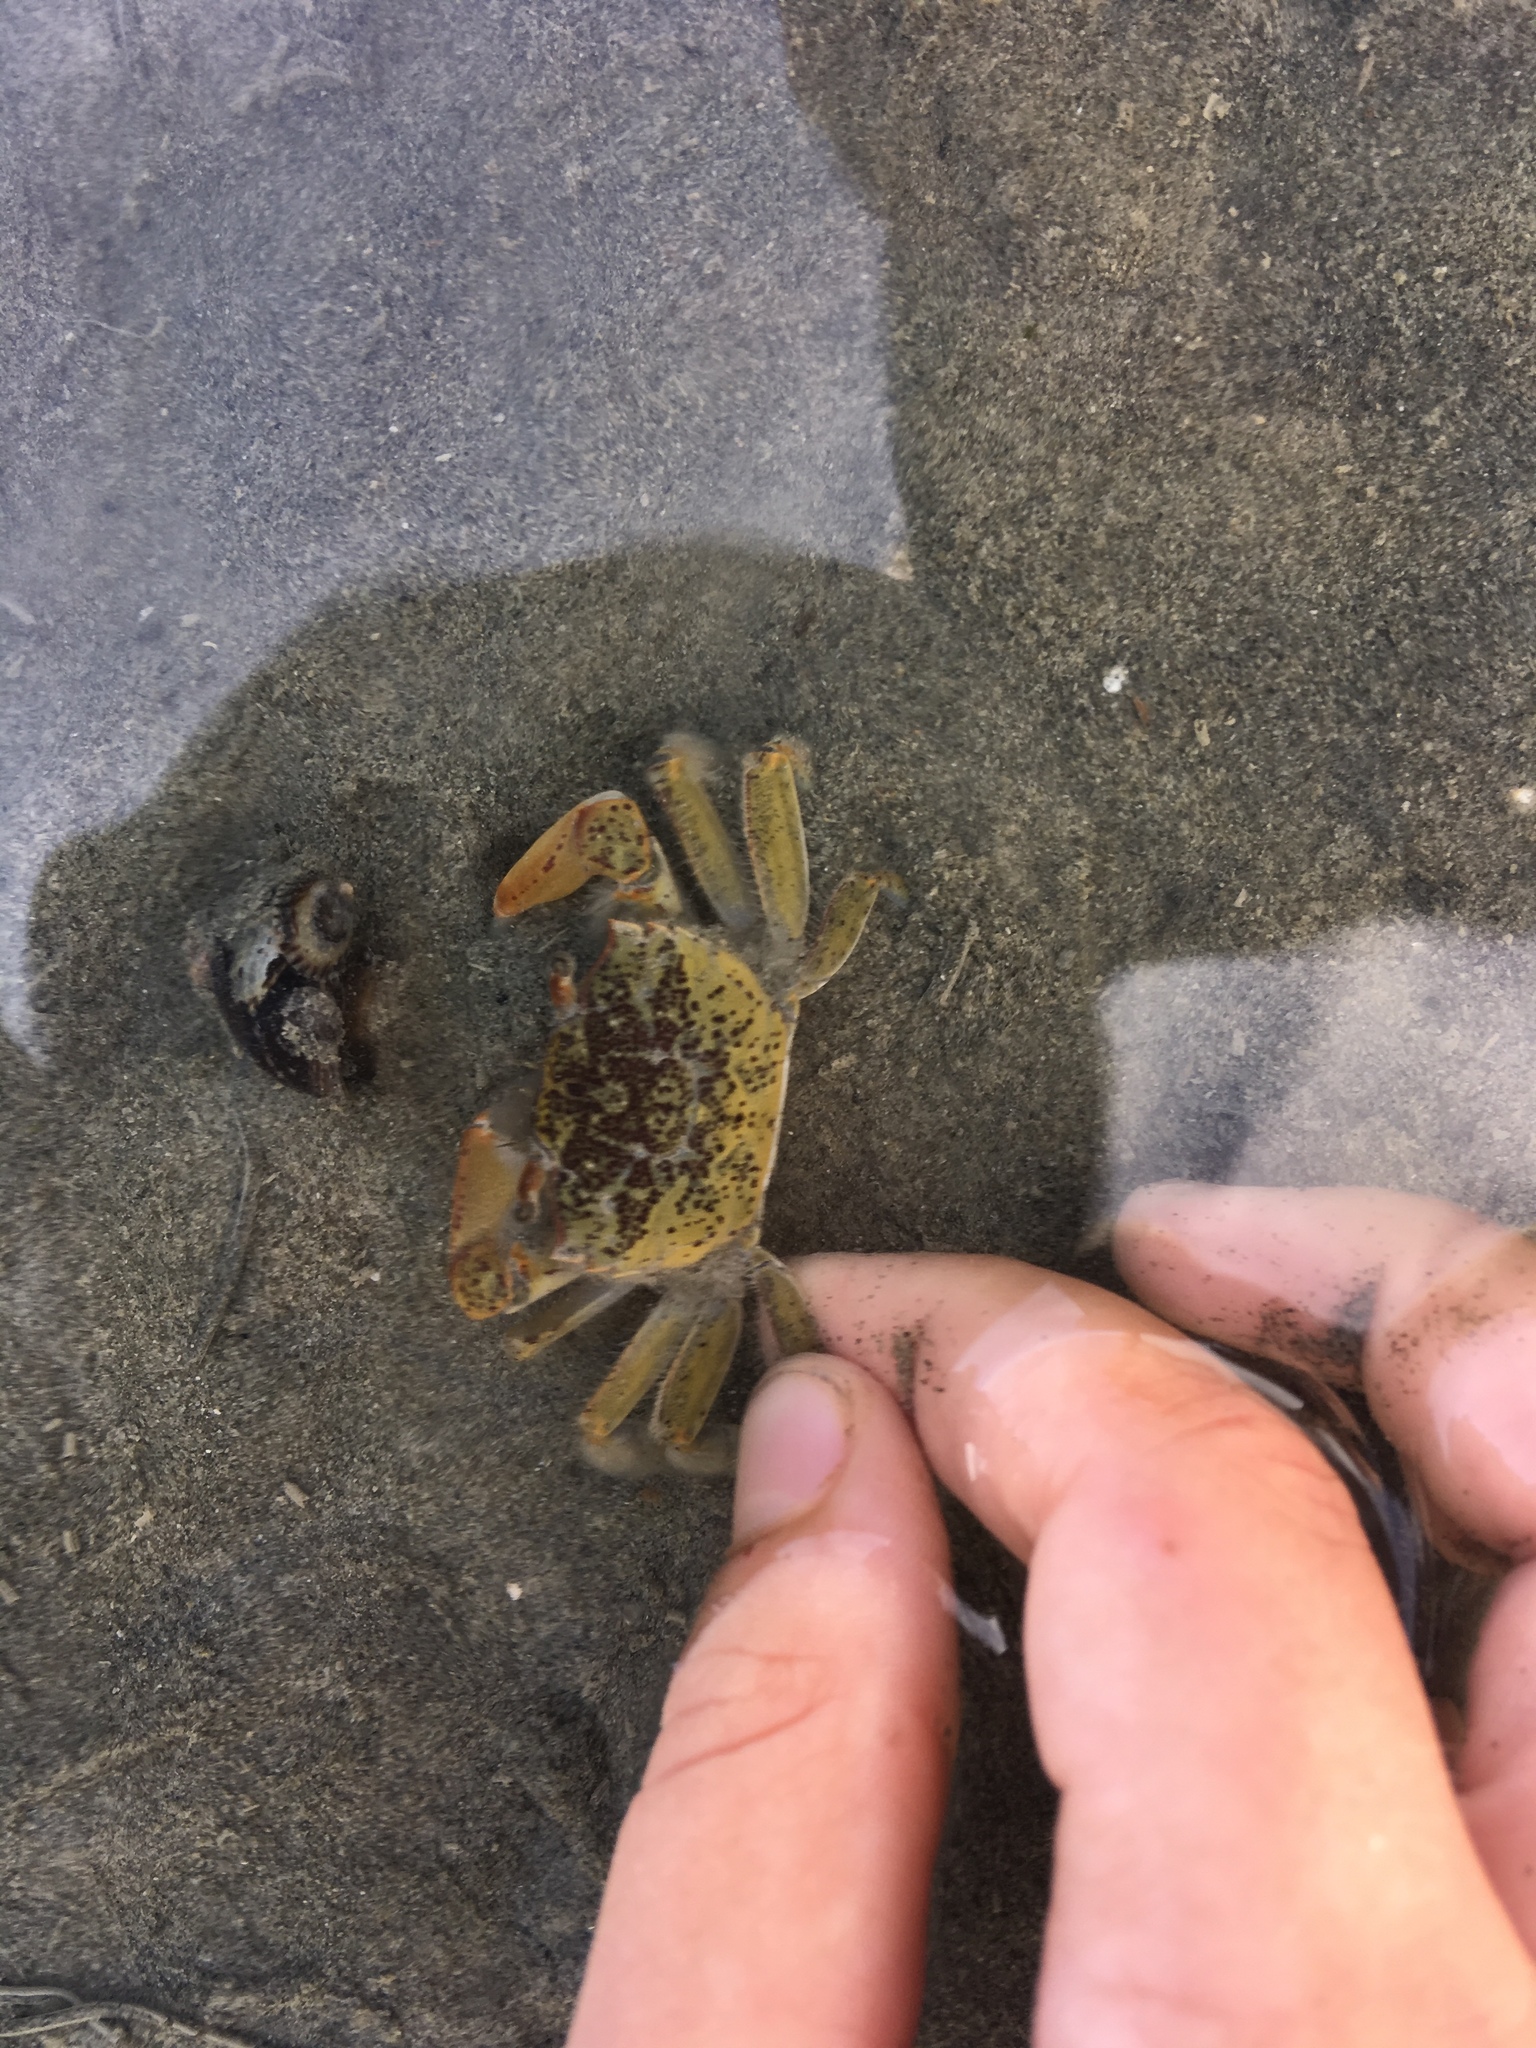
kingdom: Animalia
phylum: Arthropoda
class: Malacostraca
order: Decapoda
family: Macrophthalmidae
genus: Hemiplax
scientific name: Hemiplax hirtipes
